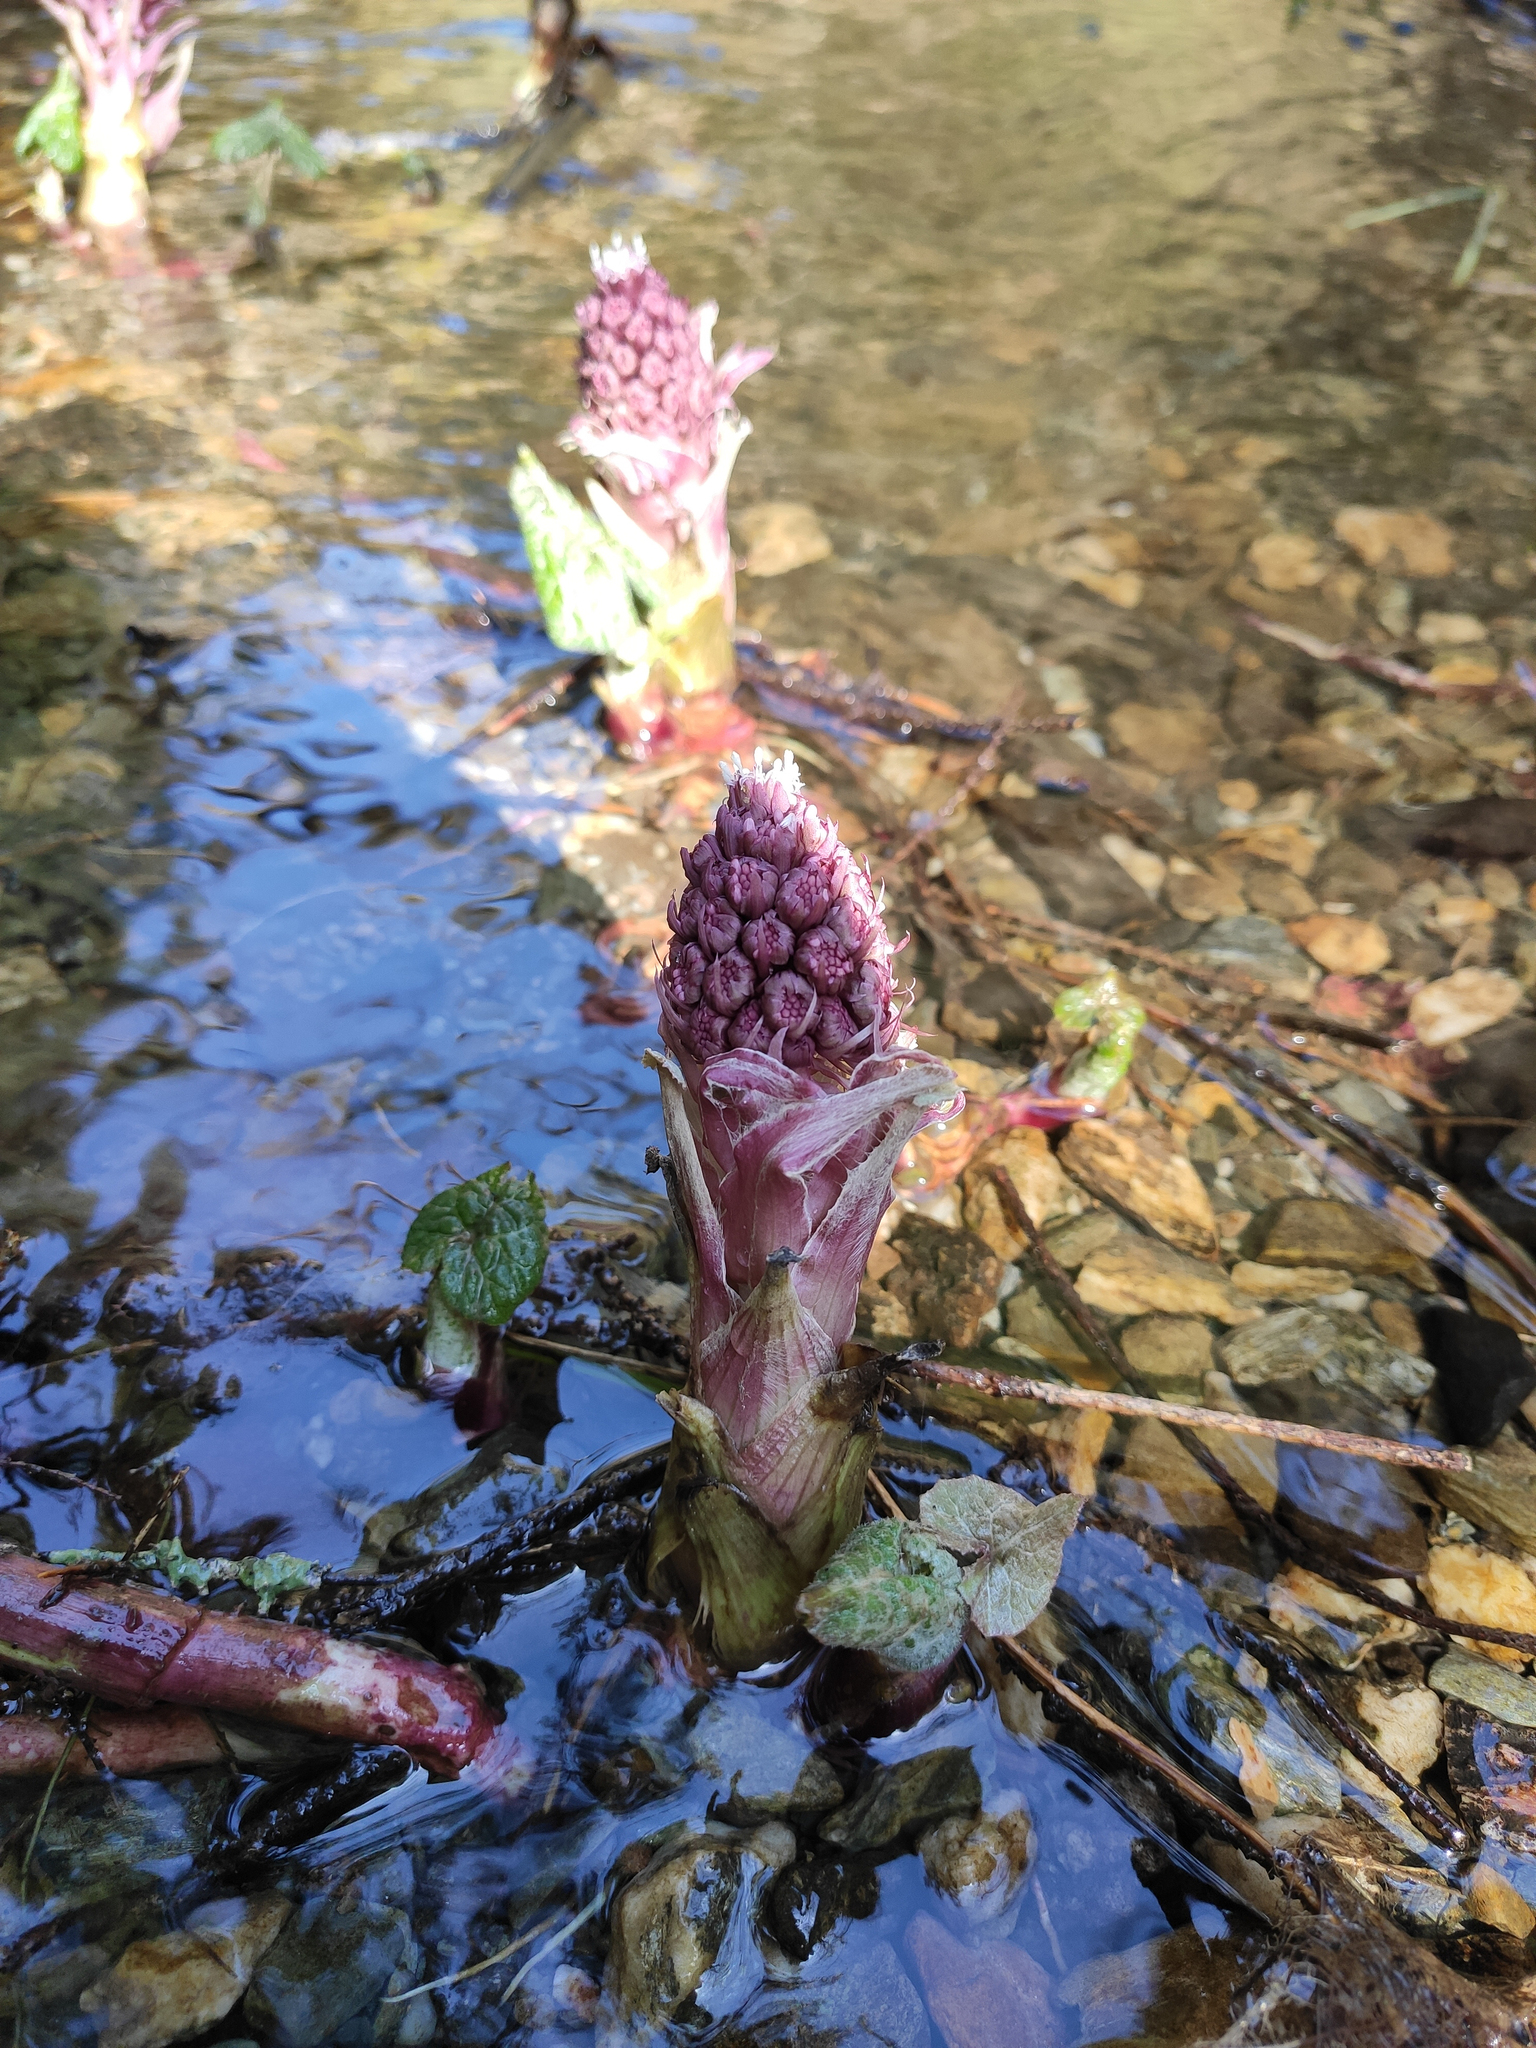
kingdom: Plantae
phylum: Tracheophyta
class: Magnoliopsida
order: Asterales
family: Asteraceae
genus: Petasites
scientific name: Petasites hybridus
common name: Butterbur
